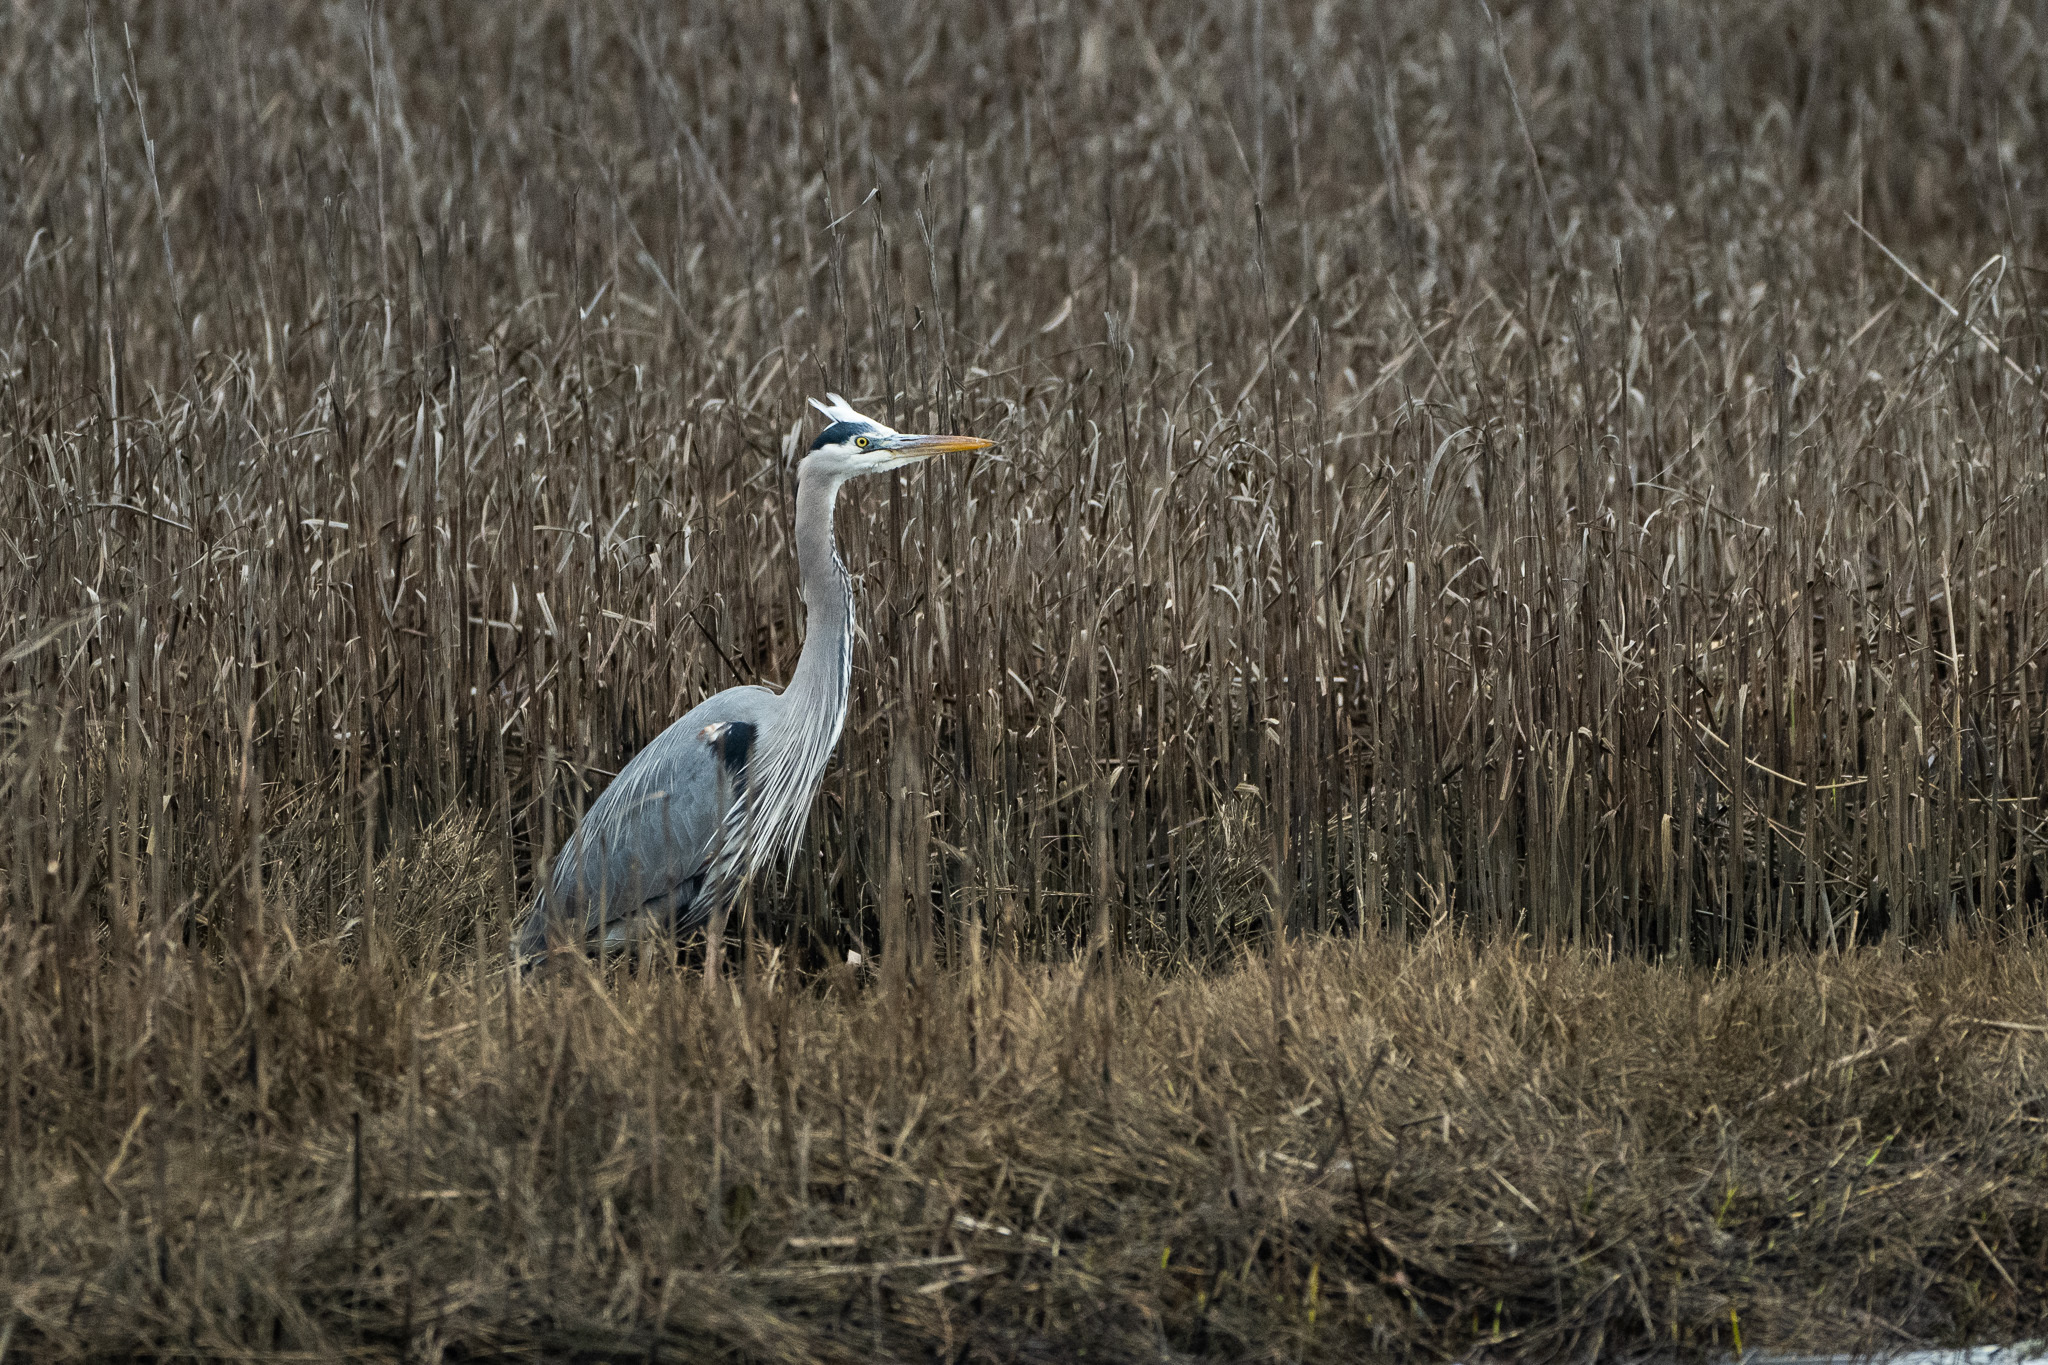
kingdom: Animalia
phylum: Chordata
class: Aves
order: Pelecaniformes
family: Ardeidae
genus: Ardea
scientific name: Ardea herodias
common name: Great blue heron
